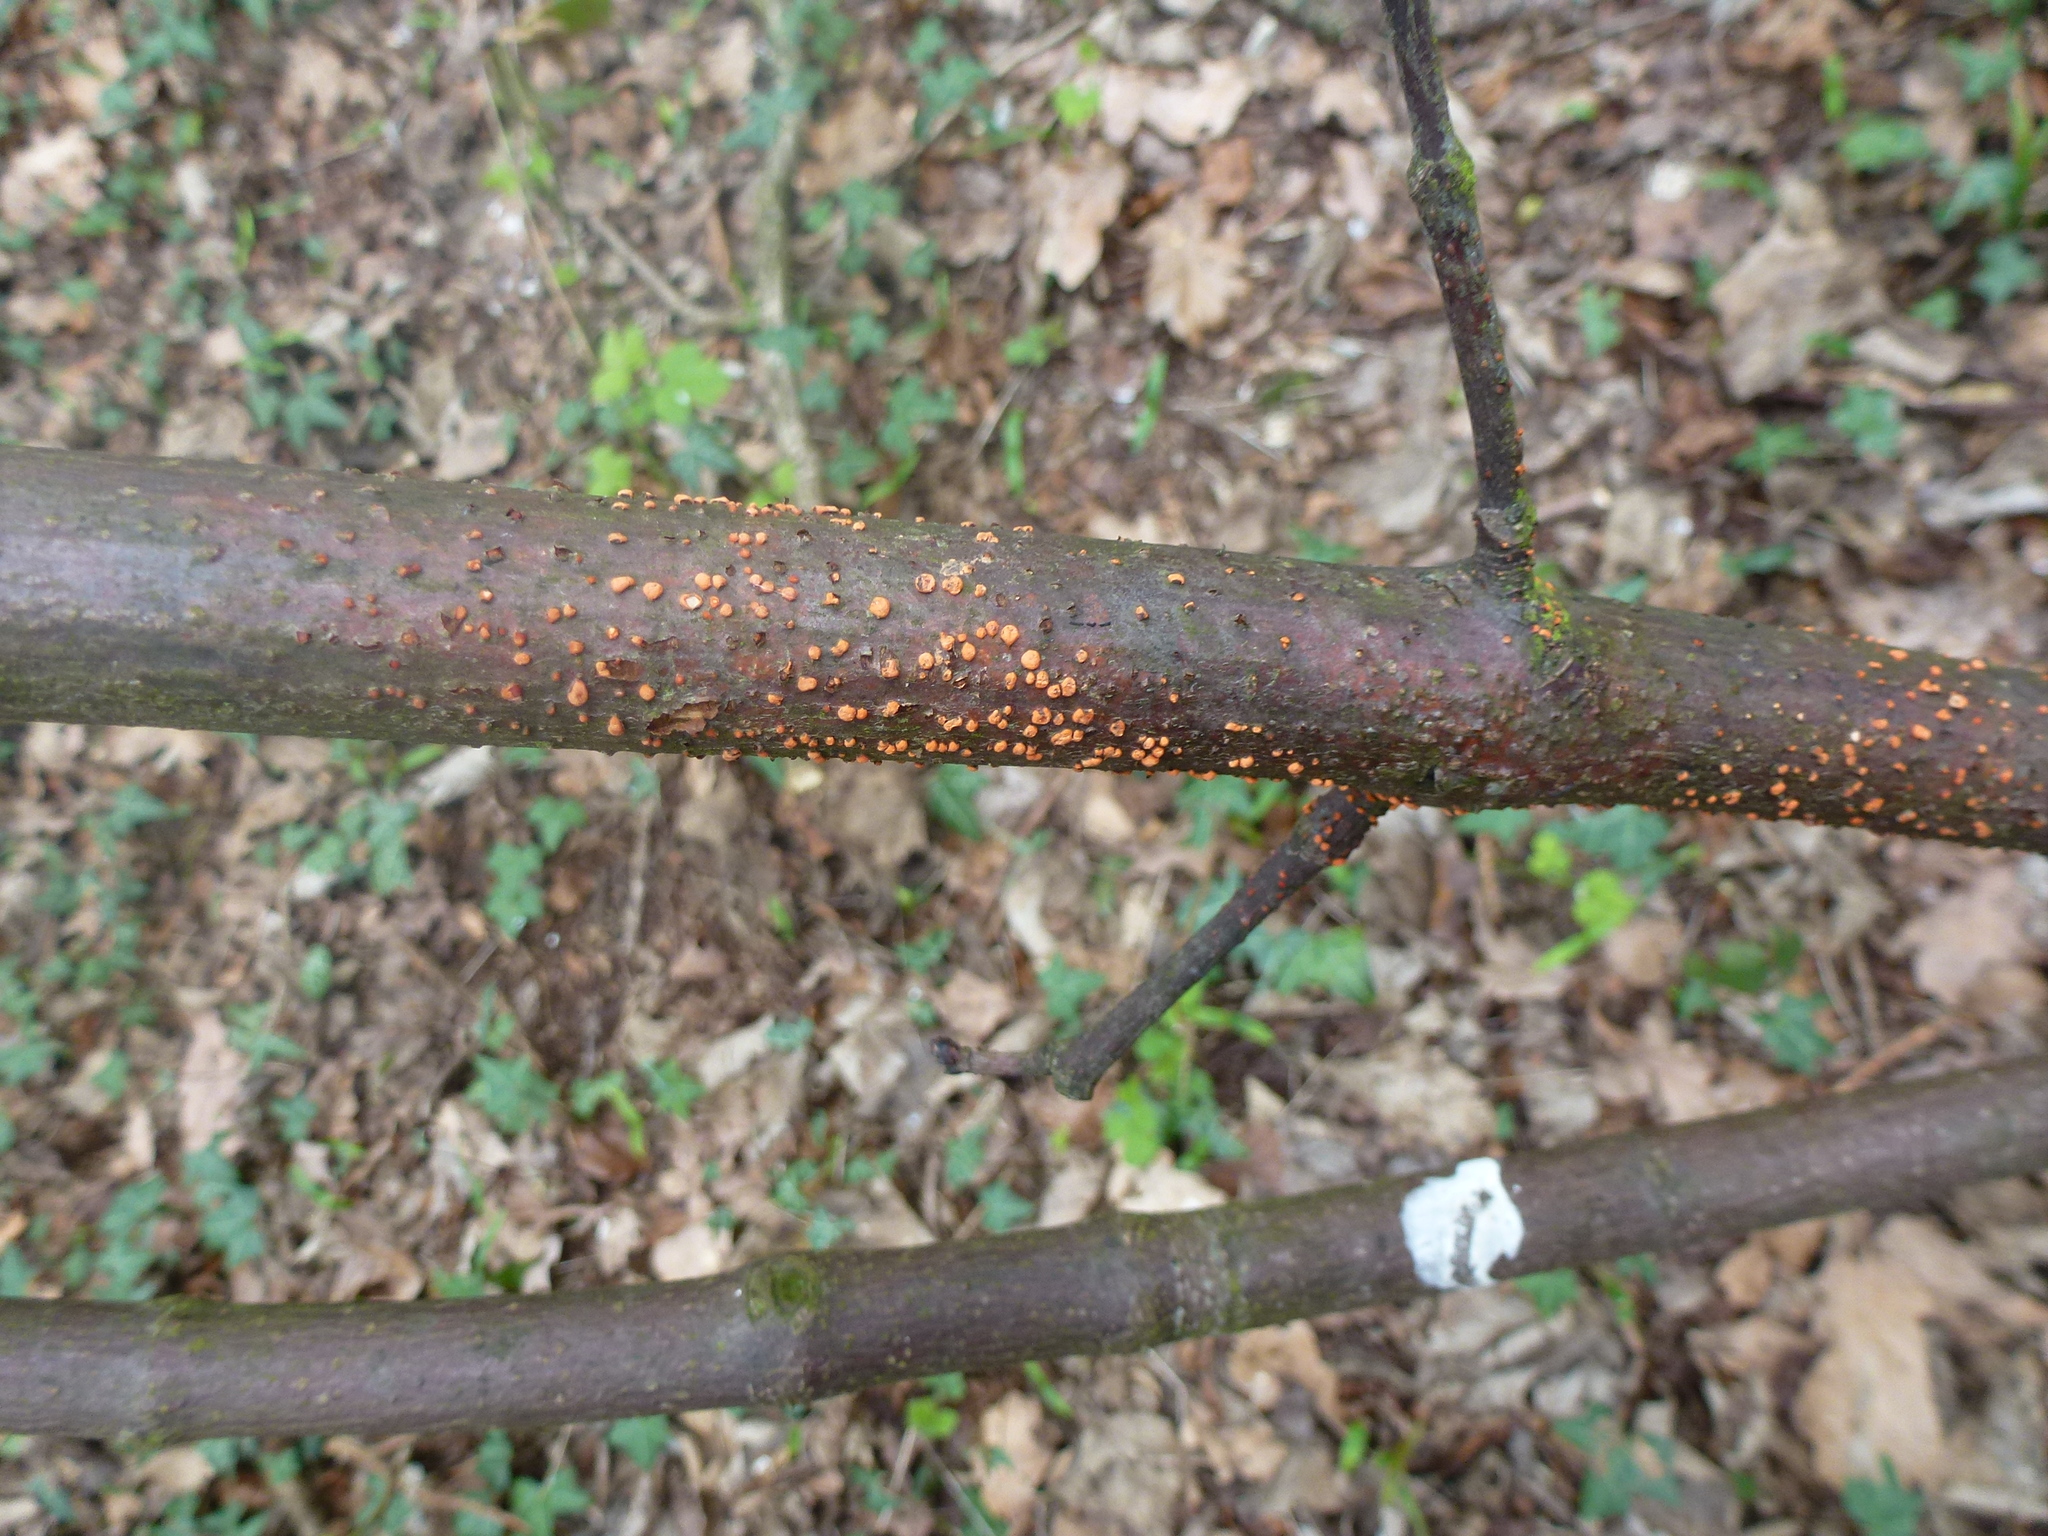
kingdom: Fungi
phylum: Ascomycota
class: Sordariomycetes
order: Hypocreales
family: Nectriaceae
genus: Nectria
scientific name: Nectria cinnabarina
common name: Coral spot
